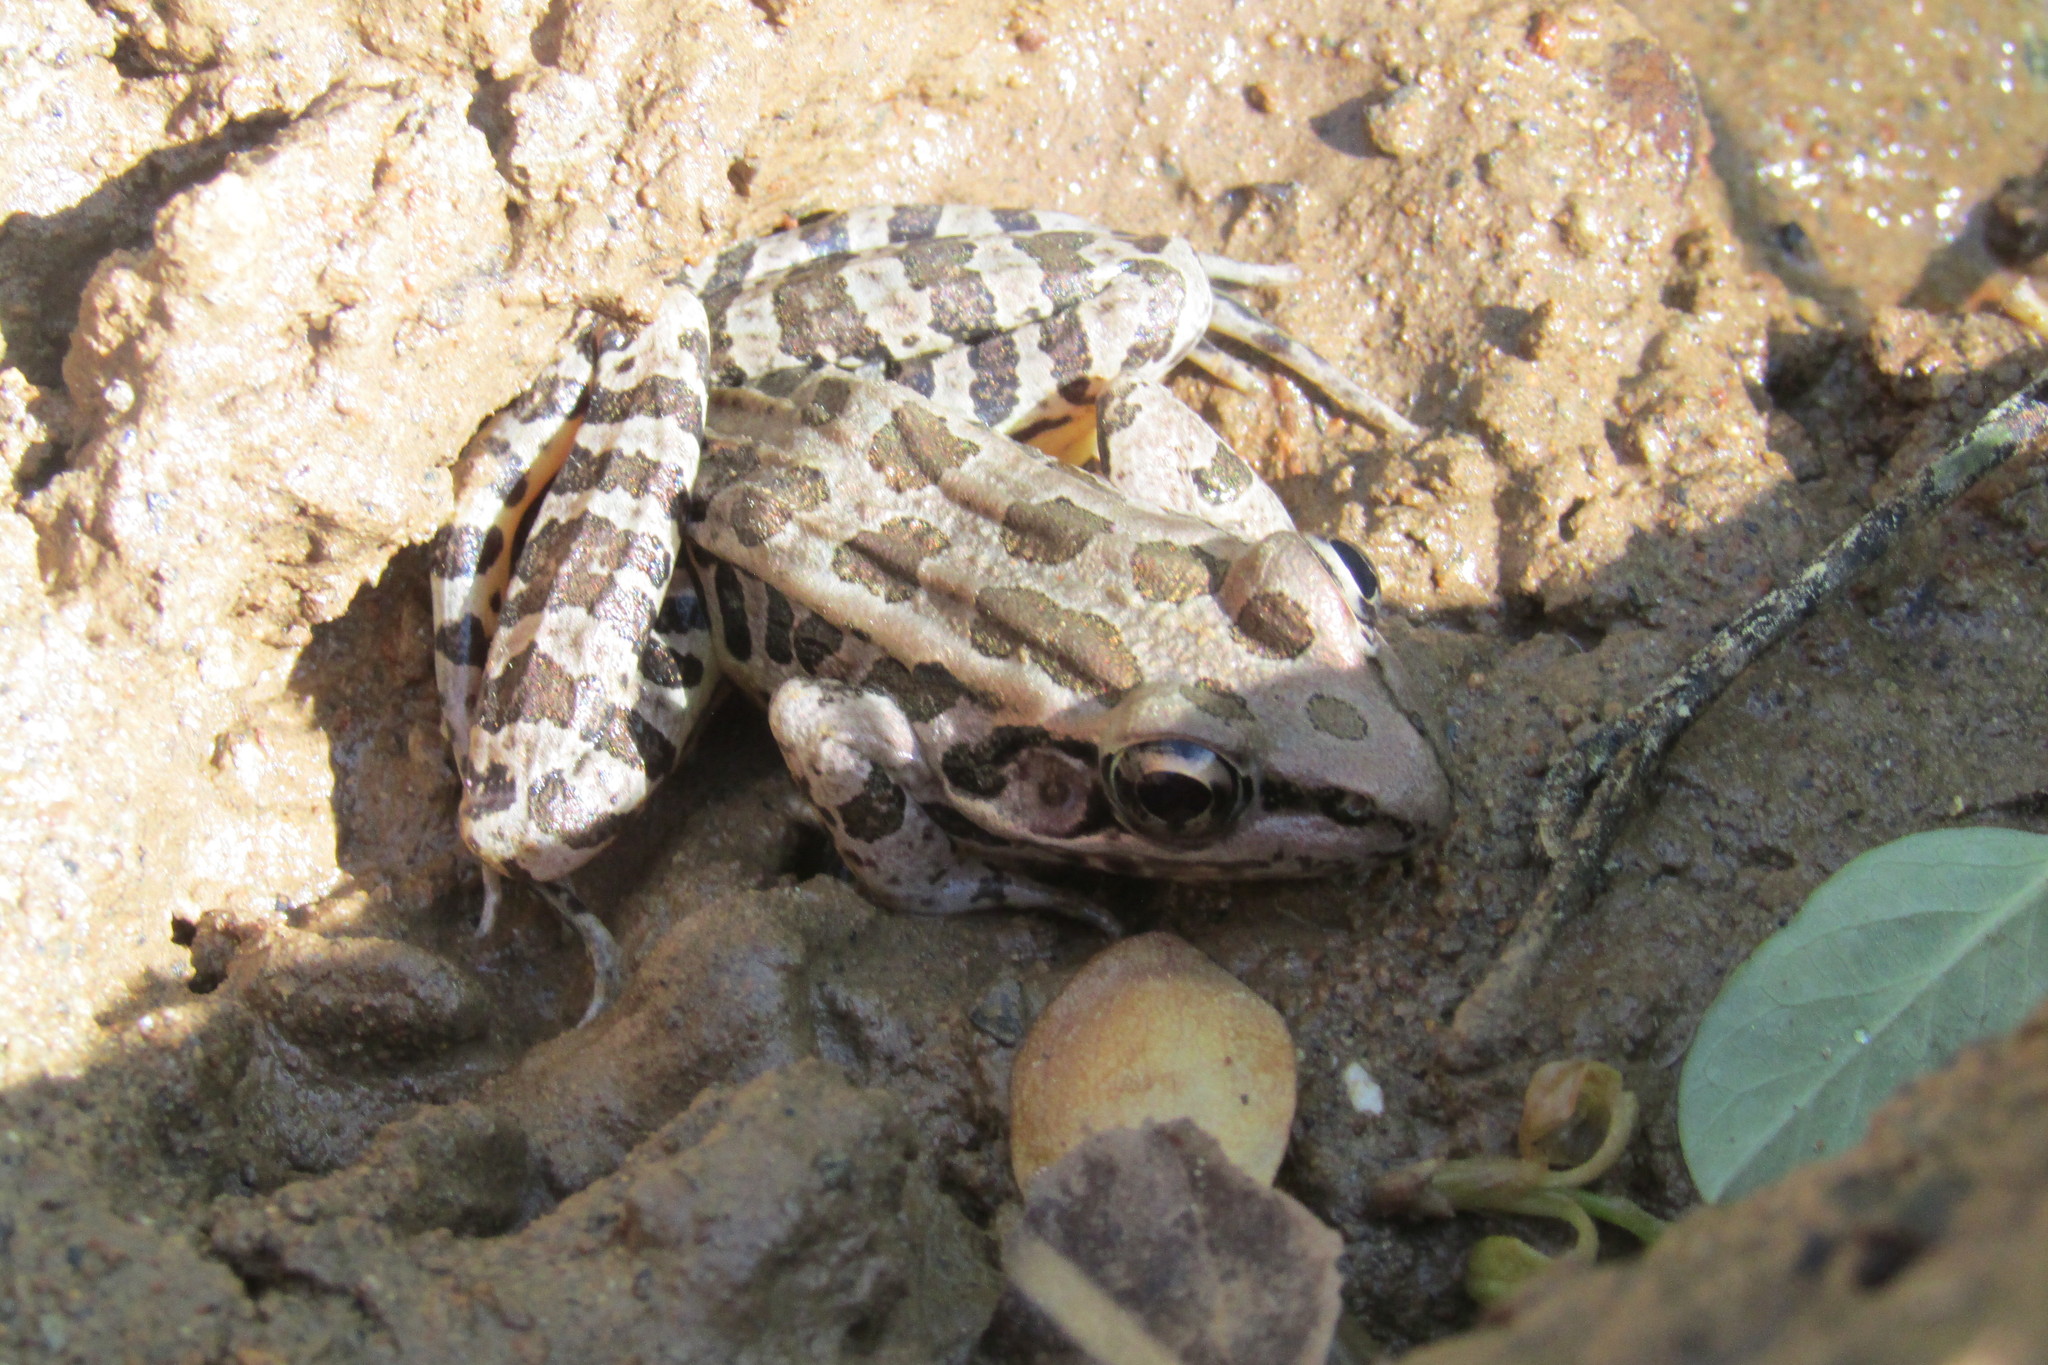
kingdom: Animalia
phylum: Chordata
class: Amphibia
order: Anura
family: Ranidae
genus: Lithobates
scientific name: Lithobates palustris
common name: Pickerel frog
